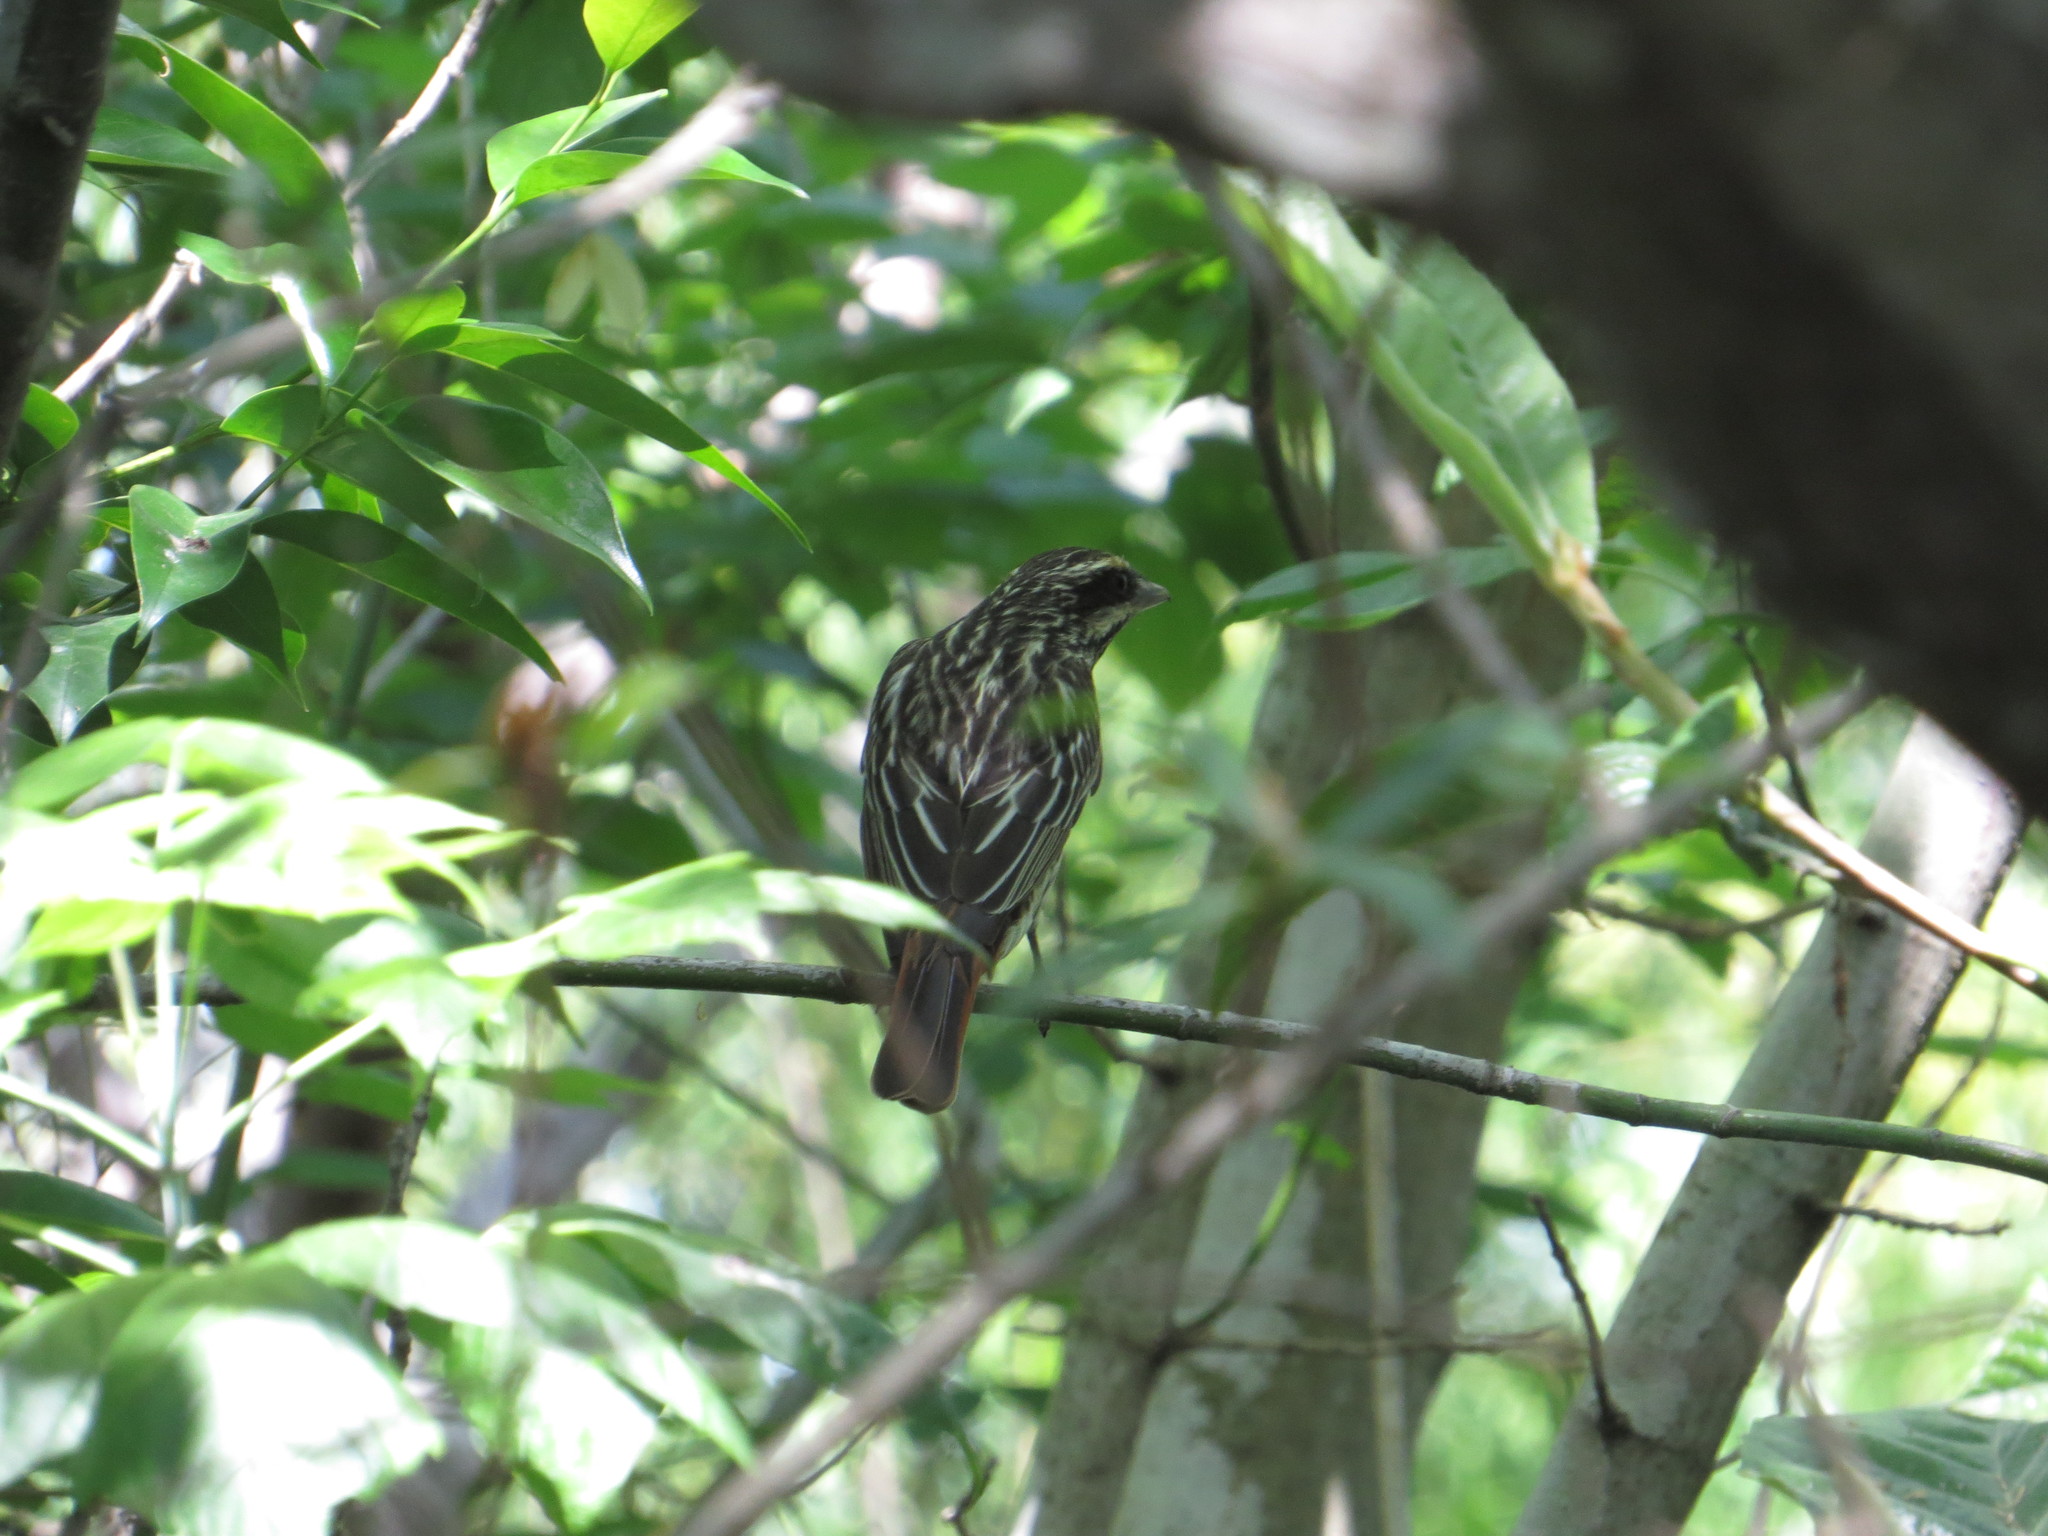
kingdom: Animalia
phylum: Chordata
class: Aves
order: Passeriformes
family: Tyrannidae
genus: Myiodynastes
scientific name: Myiodynastes maculatus
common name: Streaked flycatcher
